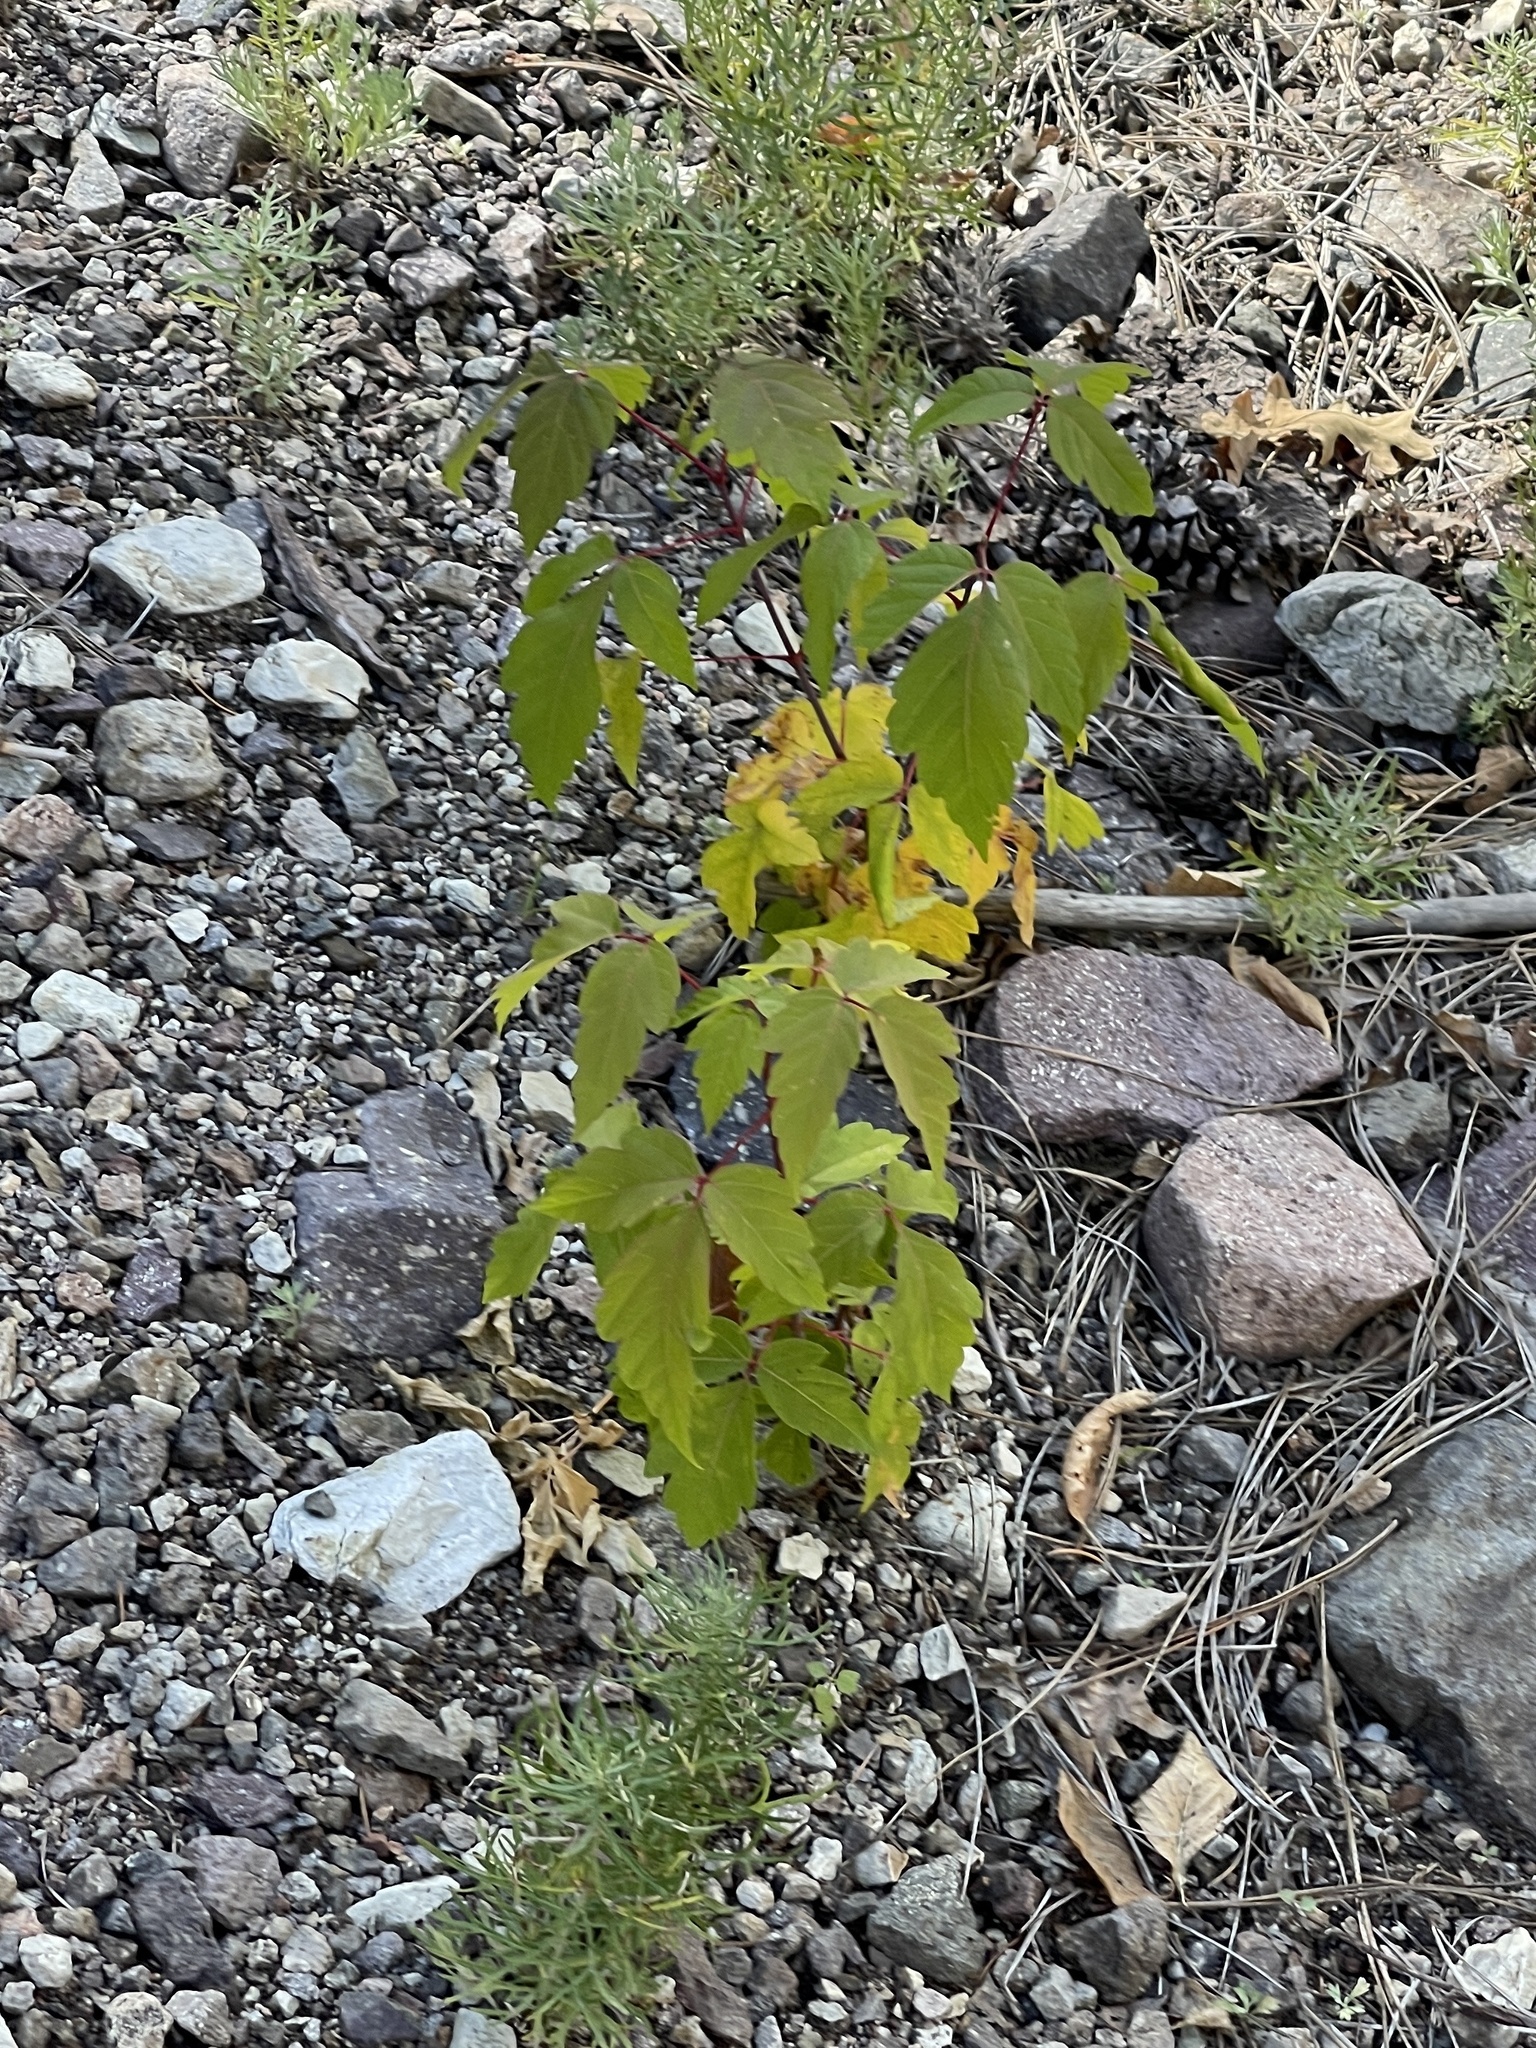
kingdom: Plantae
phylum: Tracheophyta
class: Magnoliopsida
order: Sapindales
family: Sapindaceae
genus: Acer
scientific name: Acer negundo
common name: Ashleaf maple
